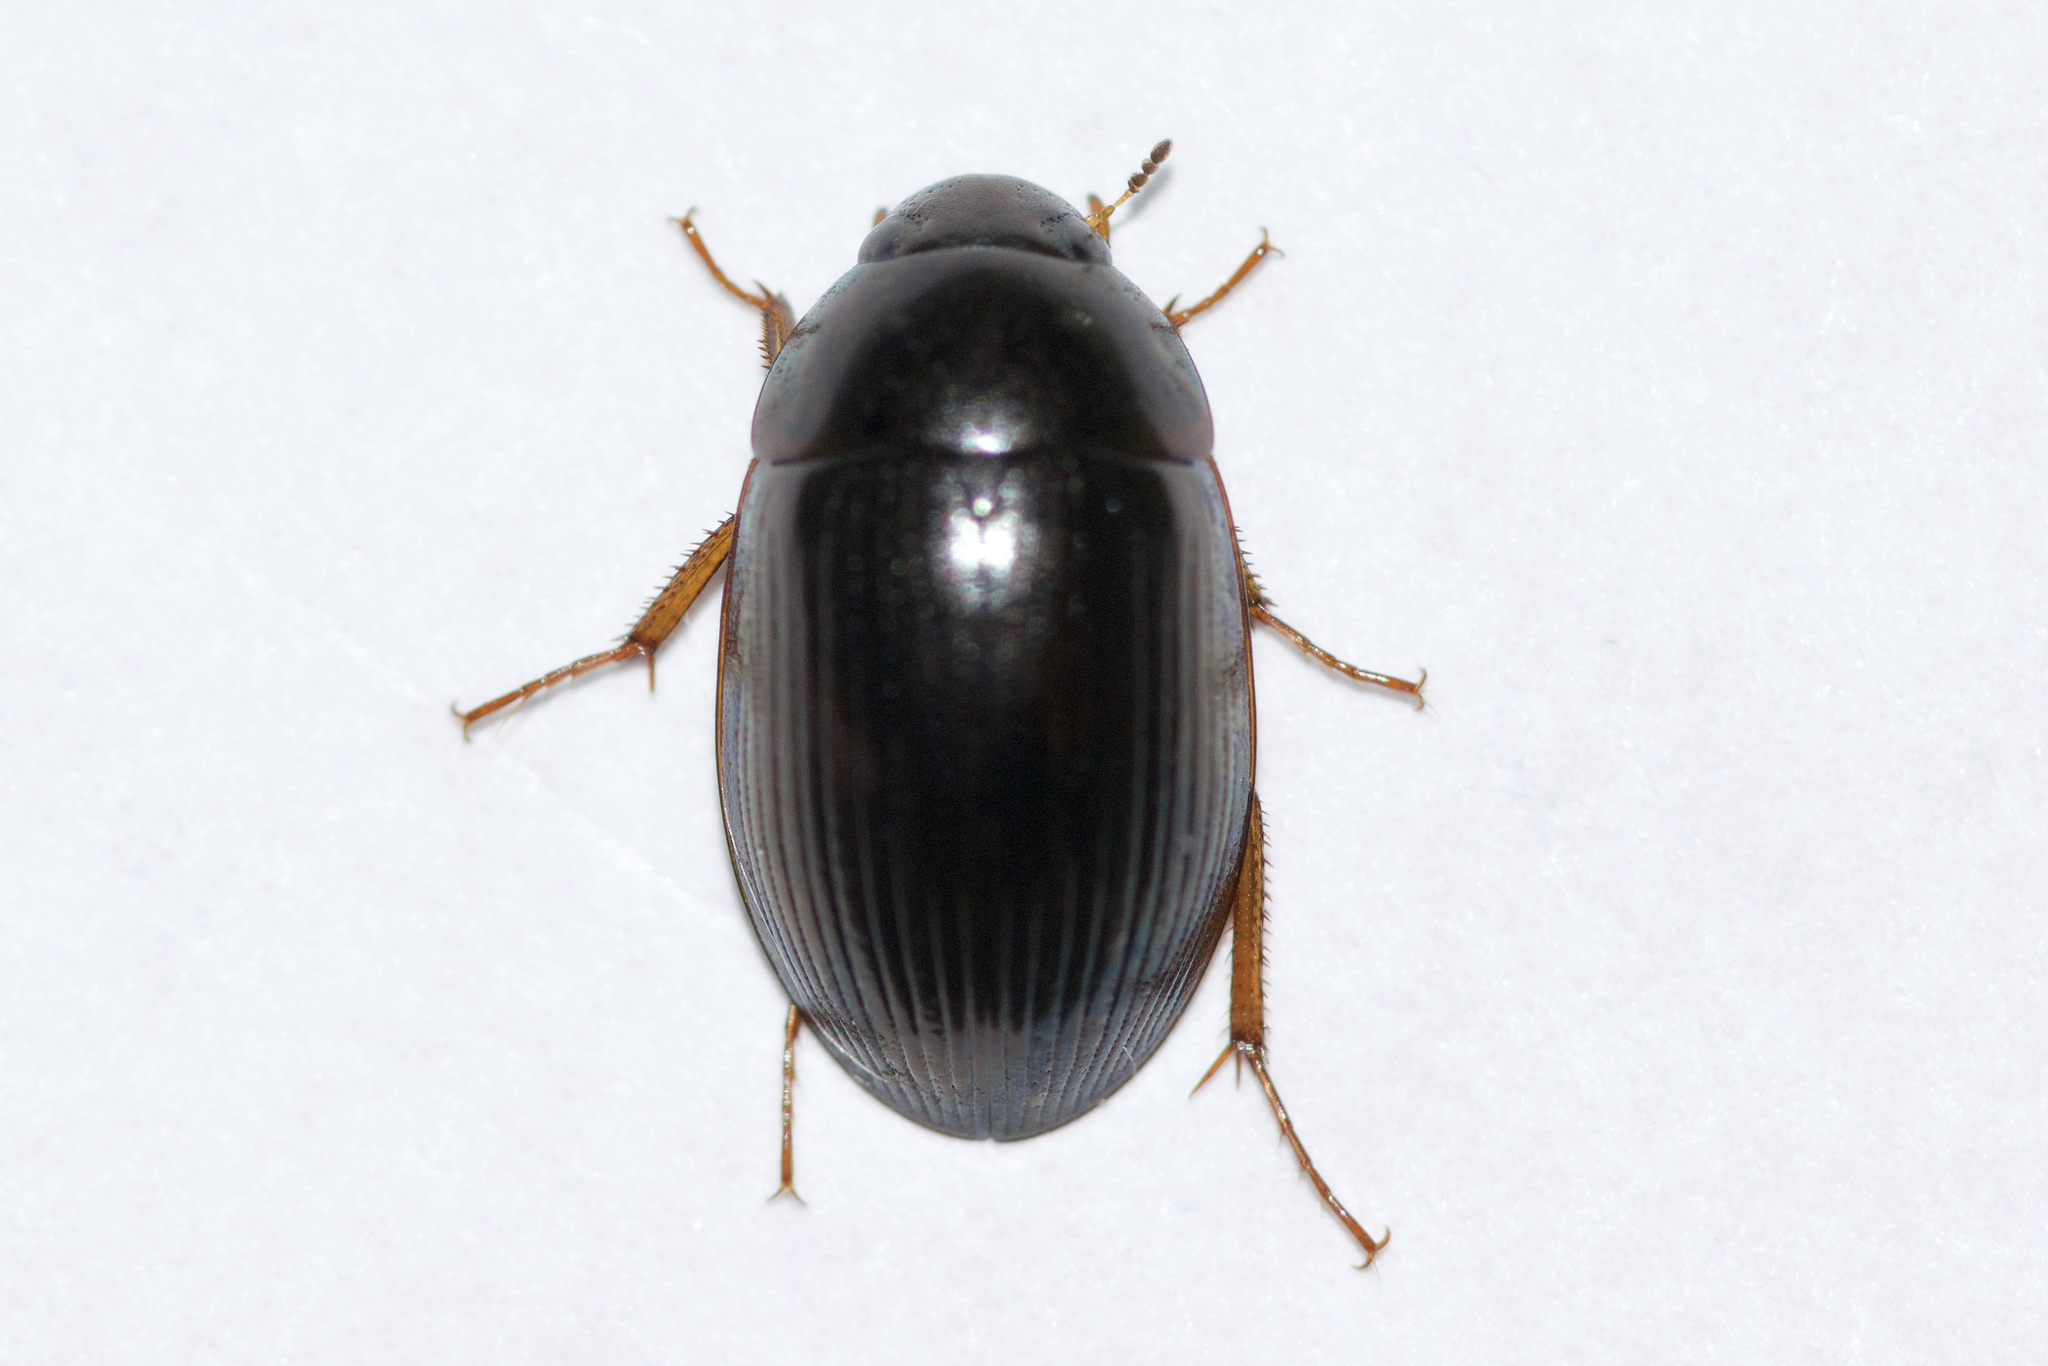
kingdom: Animalia
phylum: Arthropoda
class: Insecta
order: Coleoptera
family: Hydrophilidae
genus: Hydrobius
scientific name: Hydrobius fuscipes
